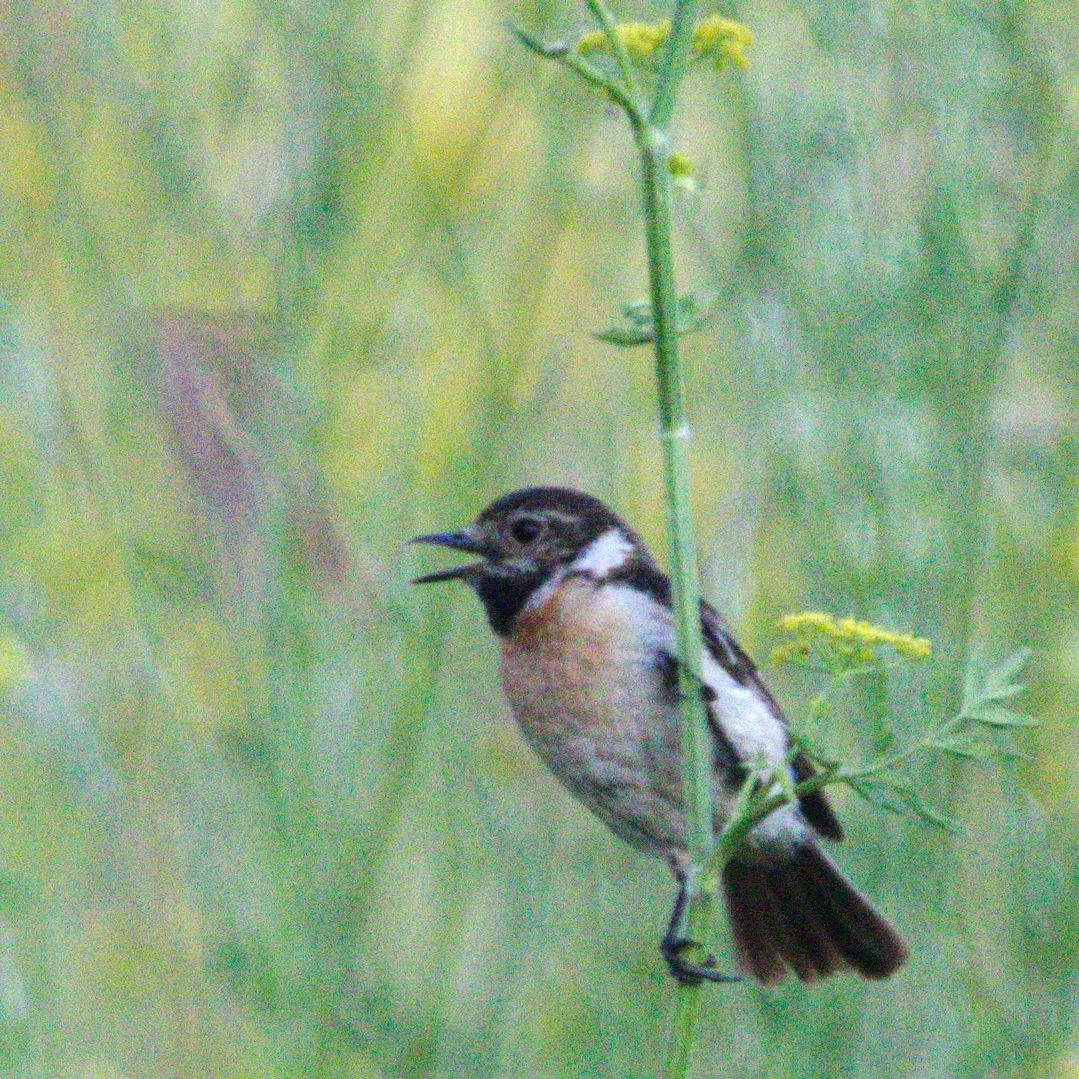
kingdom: Animalia
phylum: Chordata
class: Aves
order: Passeriformes
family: Muscicapidae
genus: Saxicola
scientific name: Saxicola maurus
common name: Siberian stonechat
